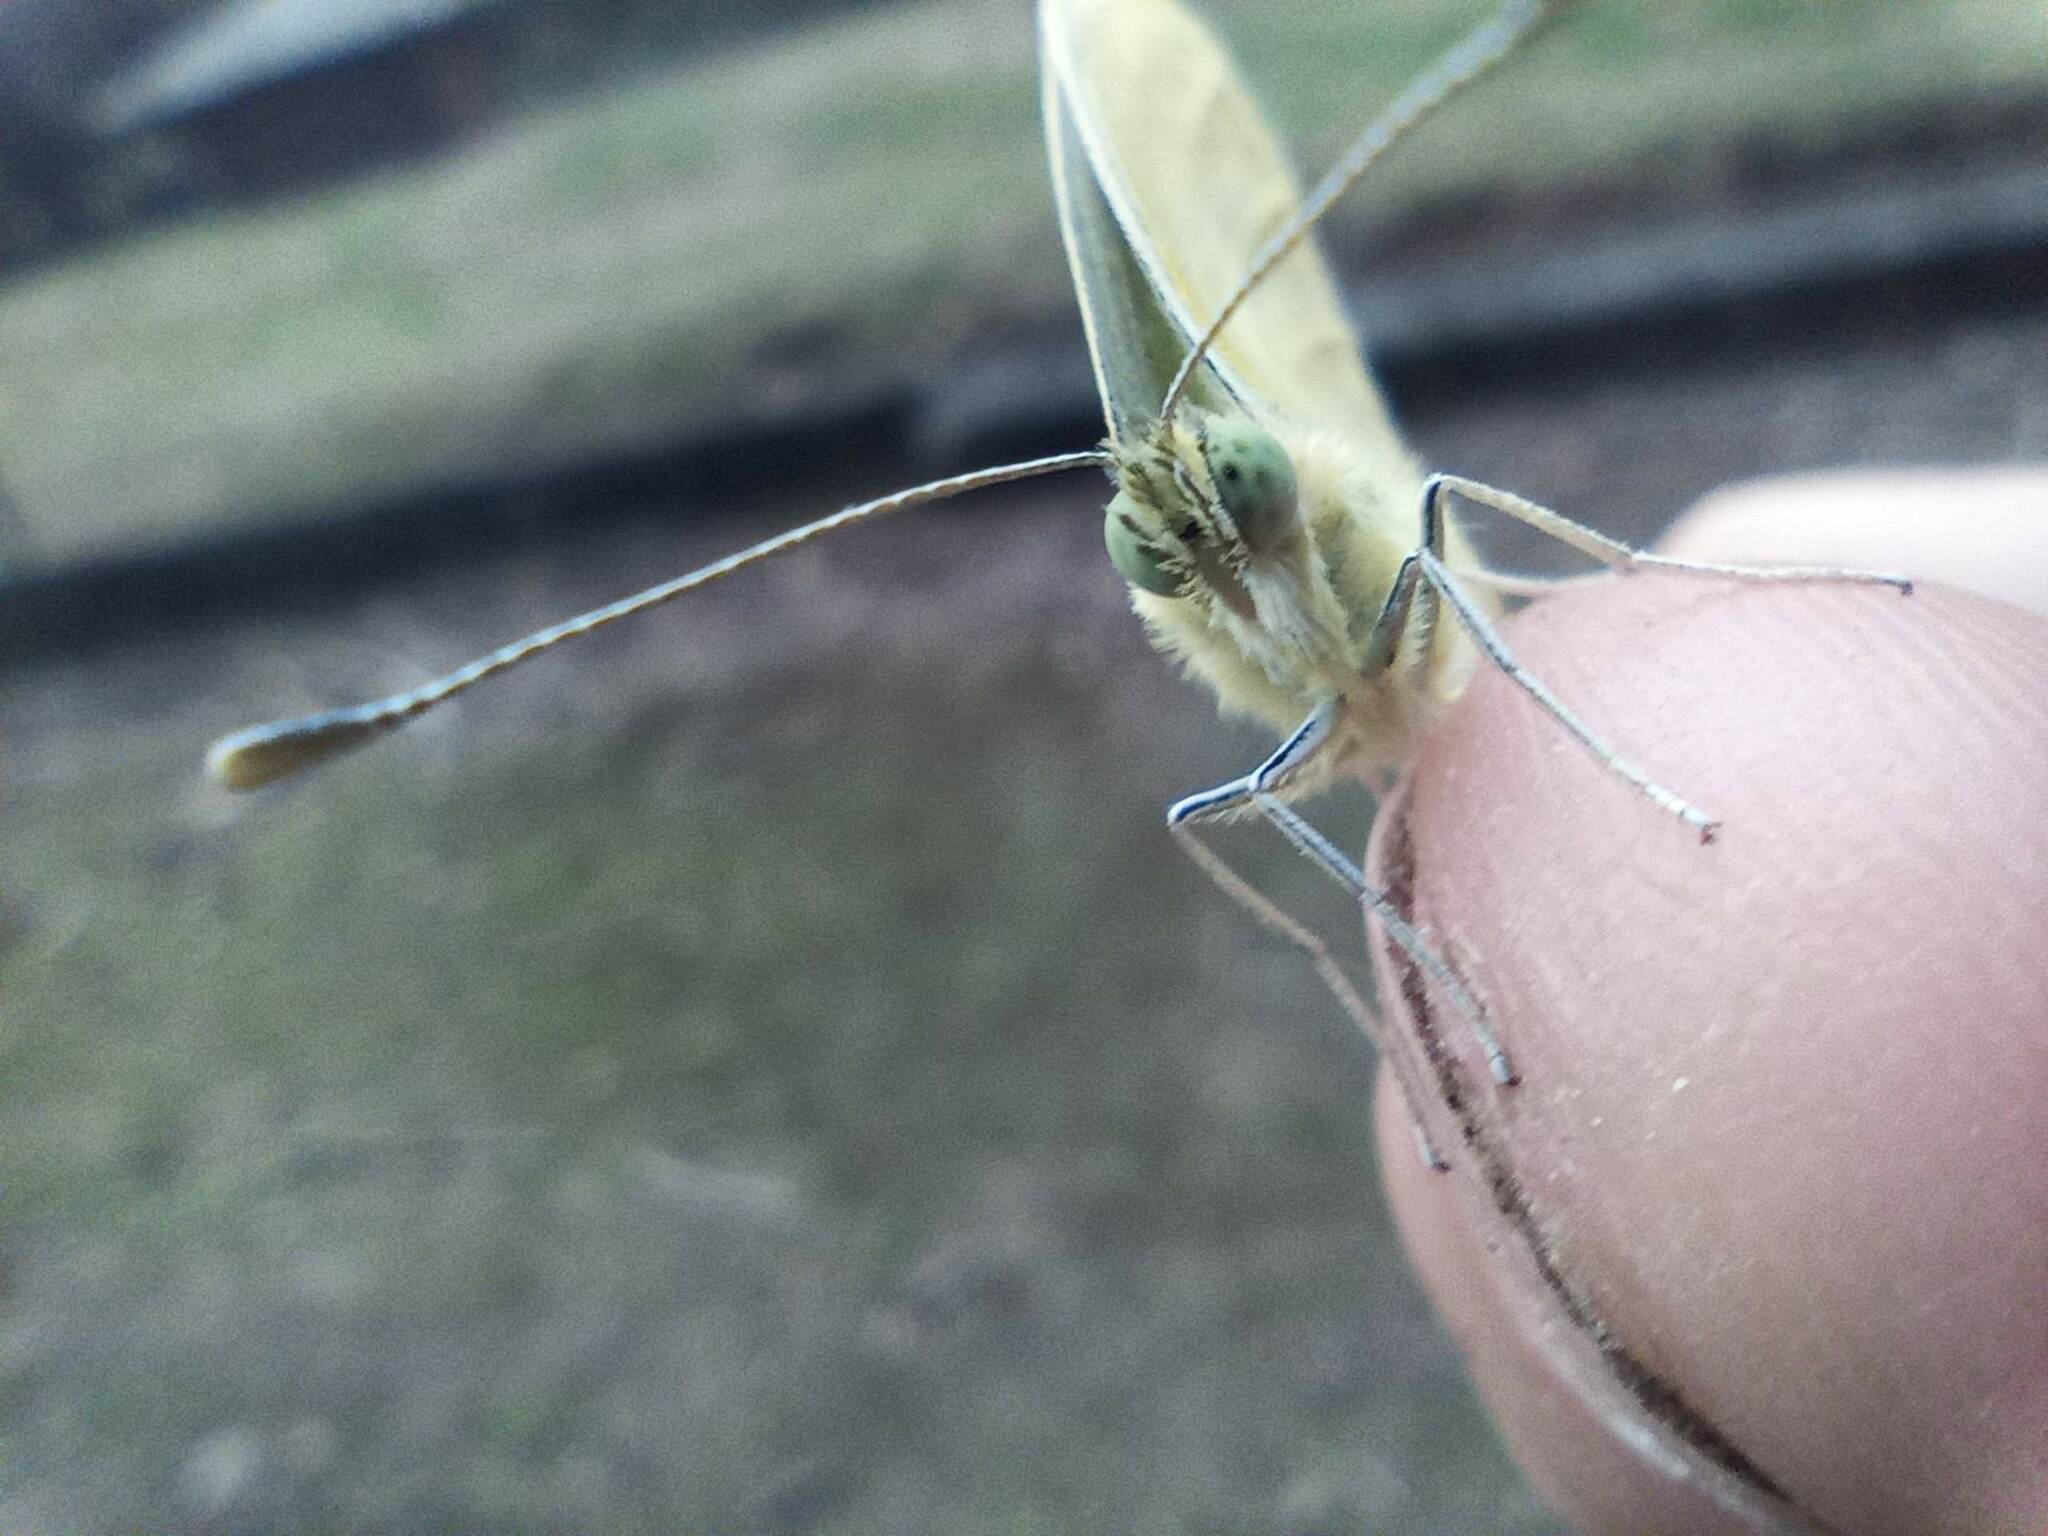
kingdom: Animalia
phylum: Arthropoda
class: Insecta
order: Lepidoptera
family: Pieridae
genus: Pieris
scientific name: Pieris rapae
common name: Small white
